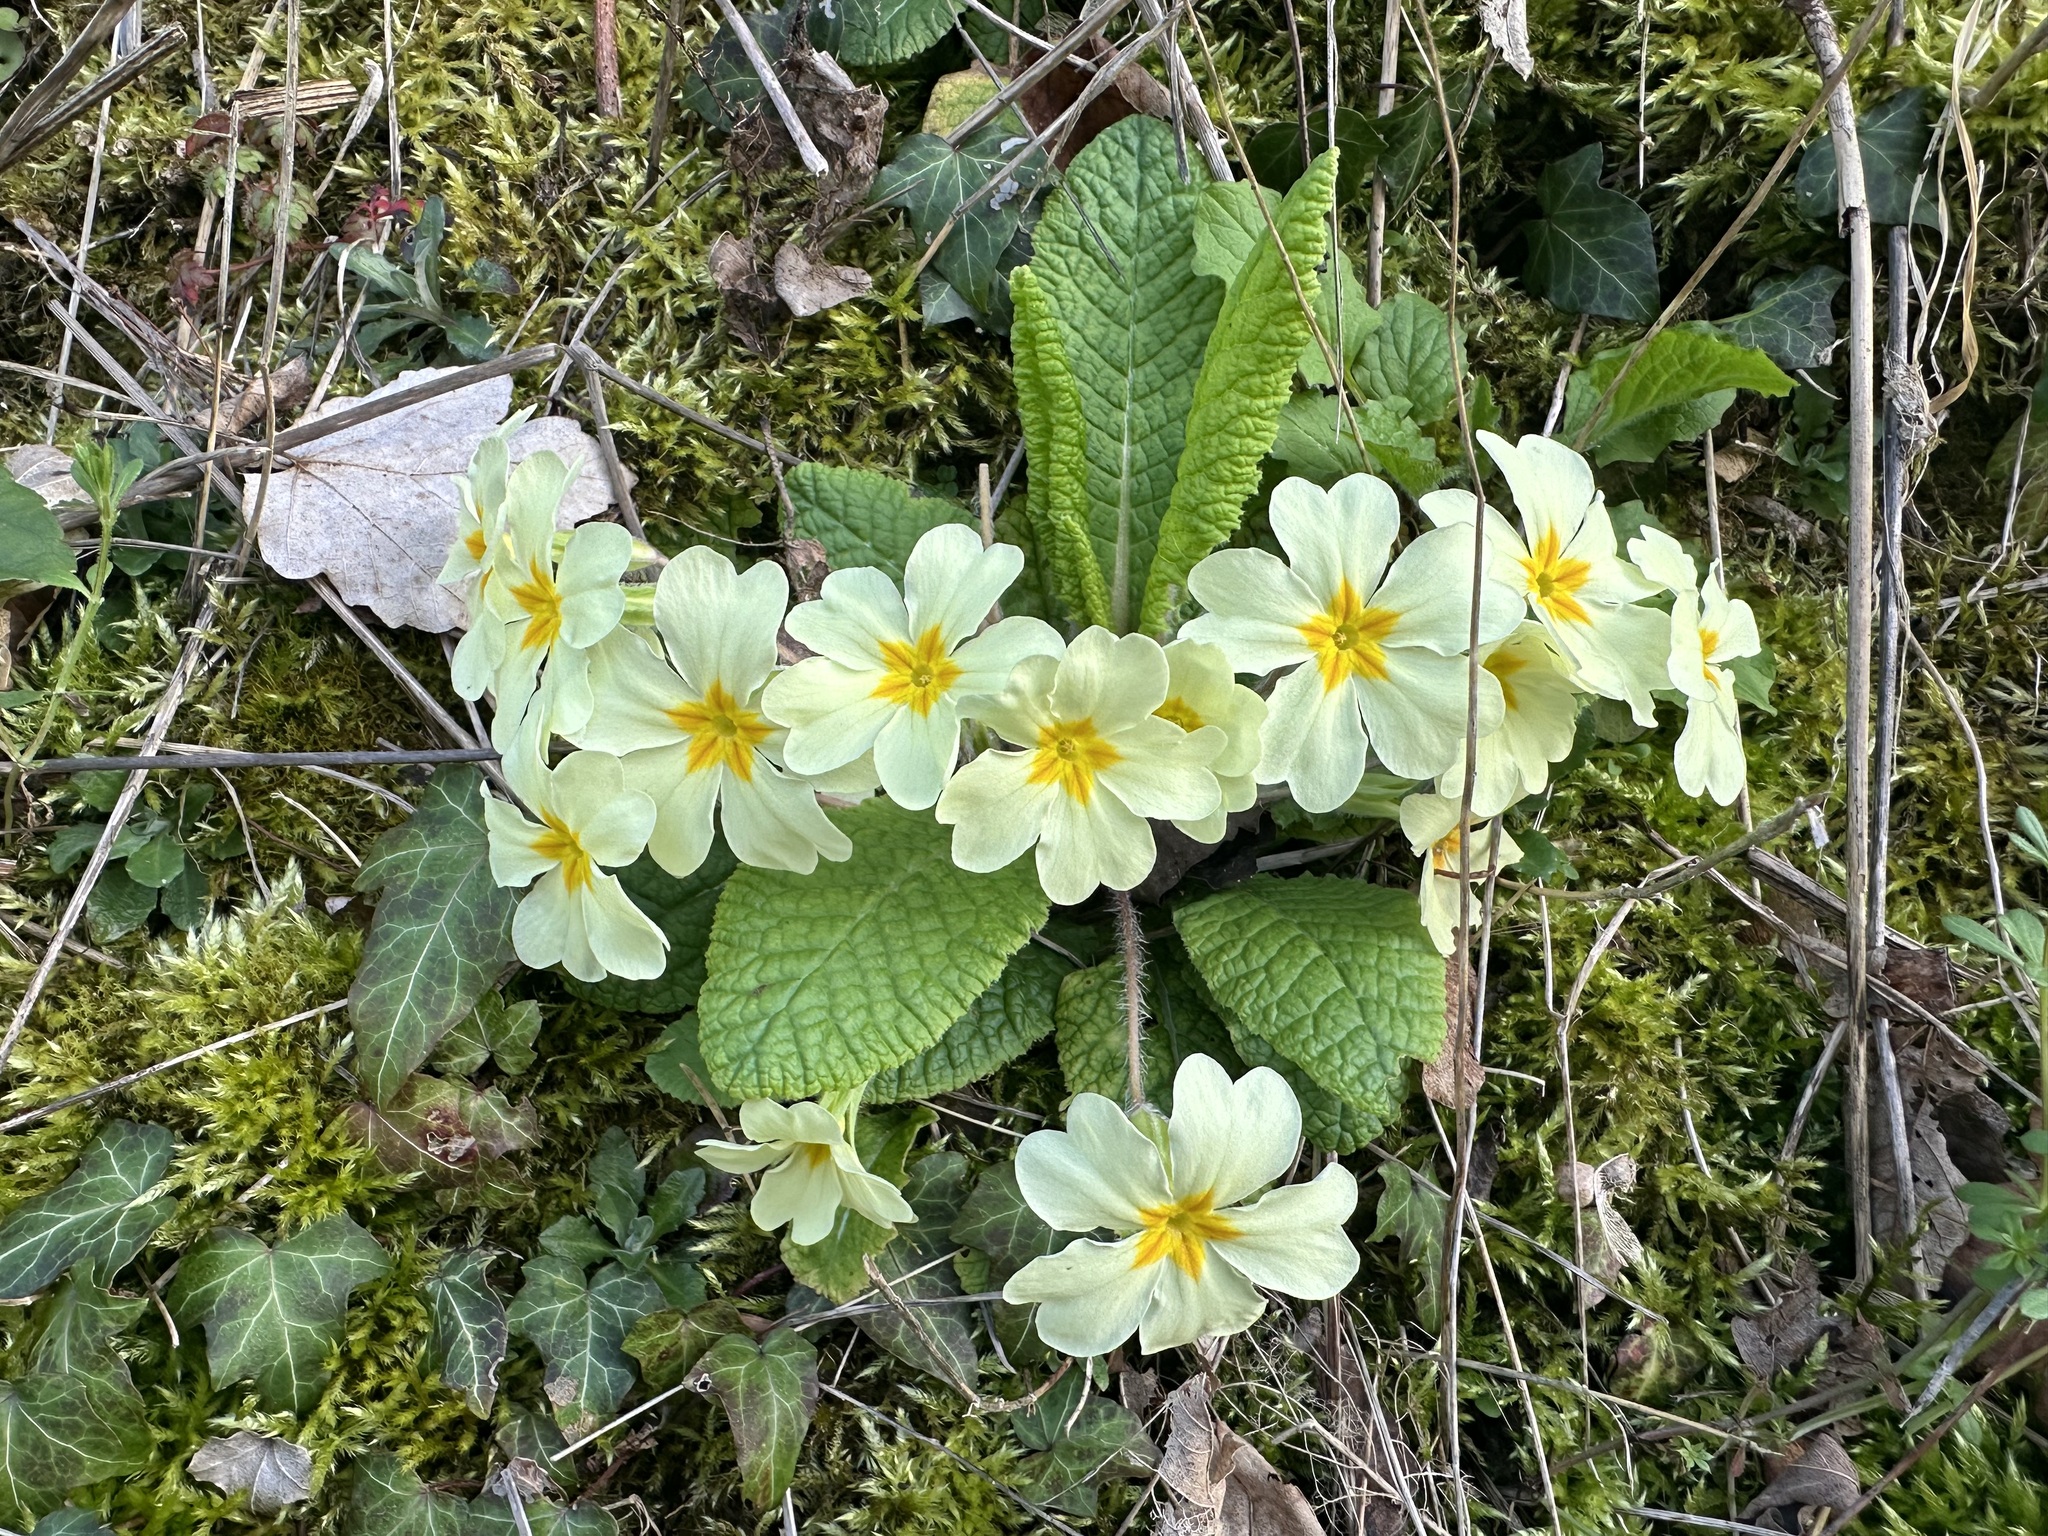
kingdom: Plantae
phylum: Tracheophyta
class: Magnoliopsida
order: Ericales
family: Primulaceae
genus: Primula
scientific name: Primula vulgaris
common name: Primrose
